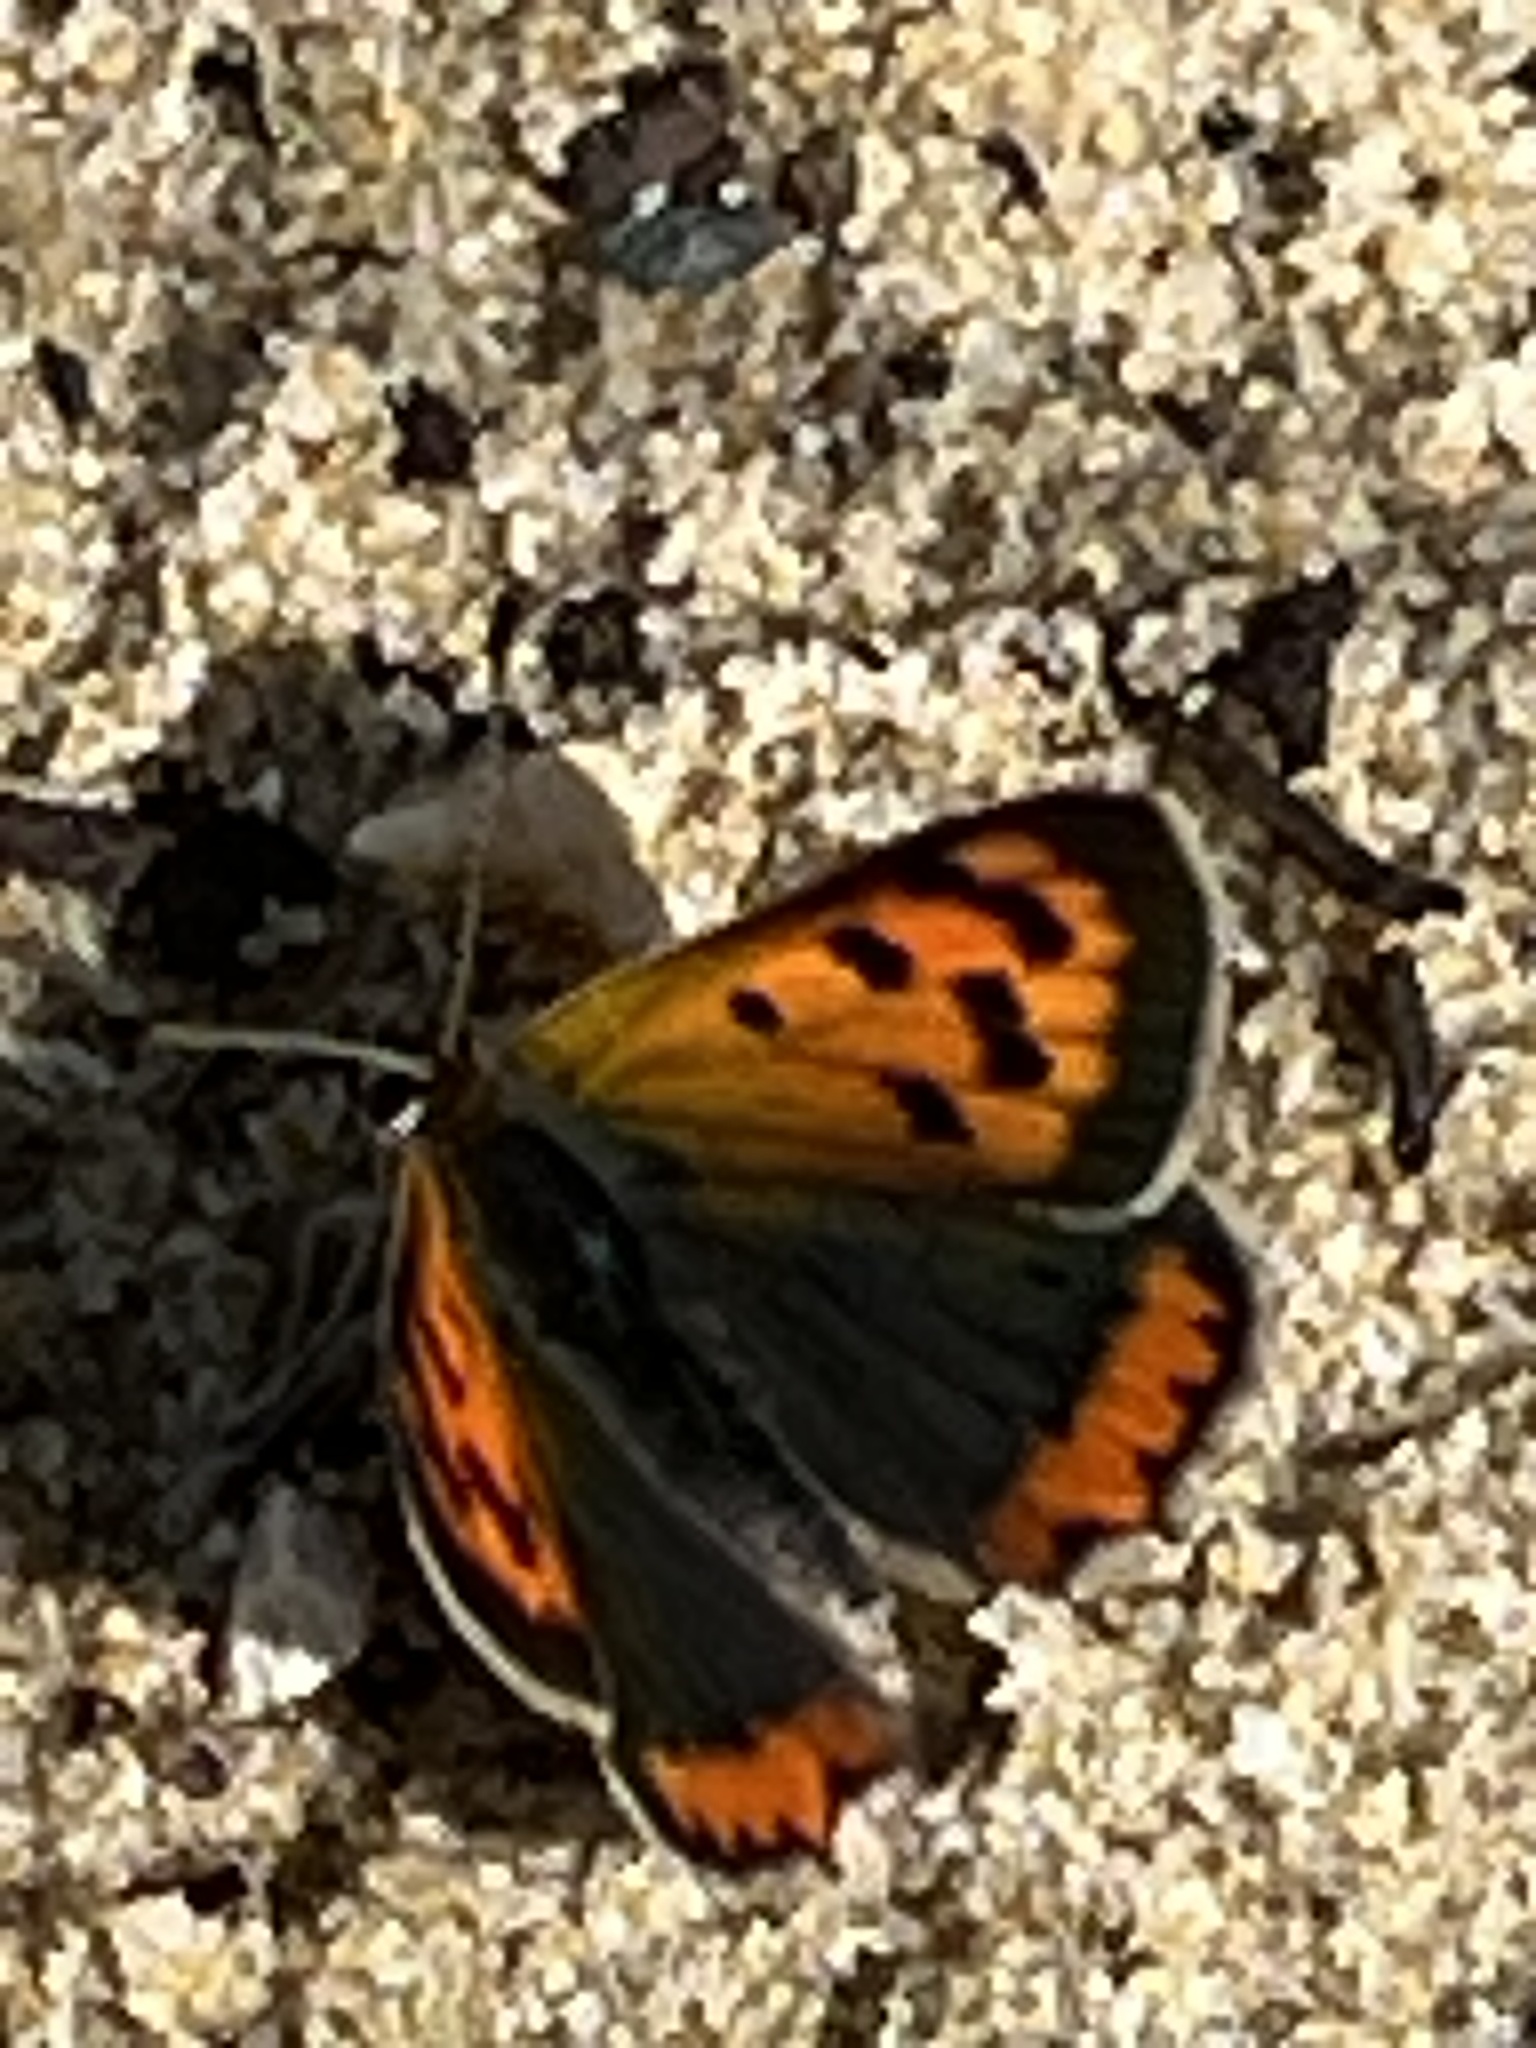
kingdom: Animalia
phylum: Arthropoda
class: Insecta
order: Lepidoptera
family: Lycaenidae
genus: Lycaena
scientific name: Lycaena phlaeas
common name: Small copper
